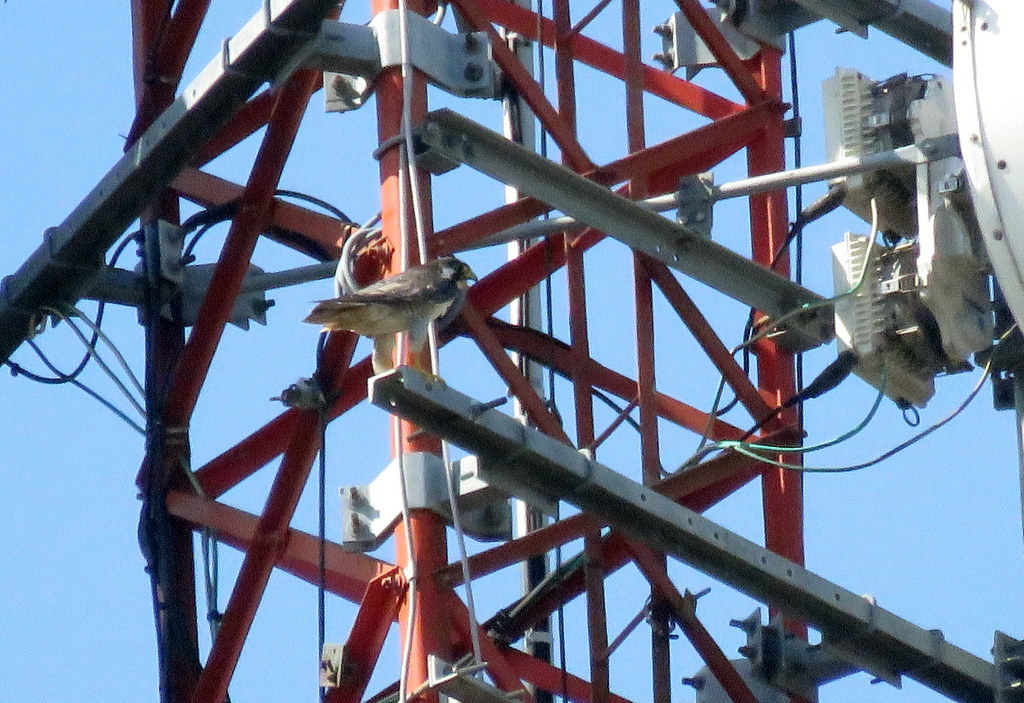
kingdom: Animalia
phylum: Chordata
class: Aves
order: Falconiformes
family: Falconidae
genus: Falco
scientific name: Falco peregrinus
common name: Peregrine falcon
